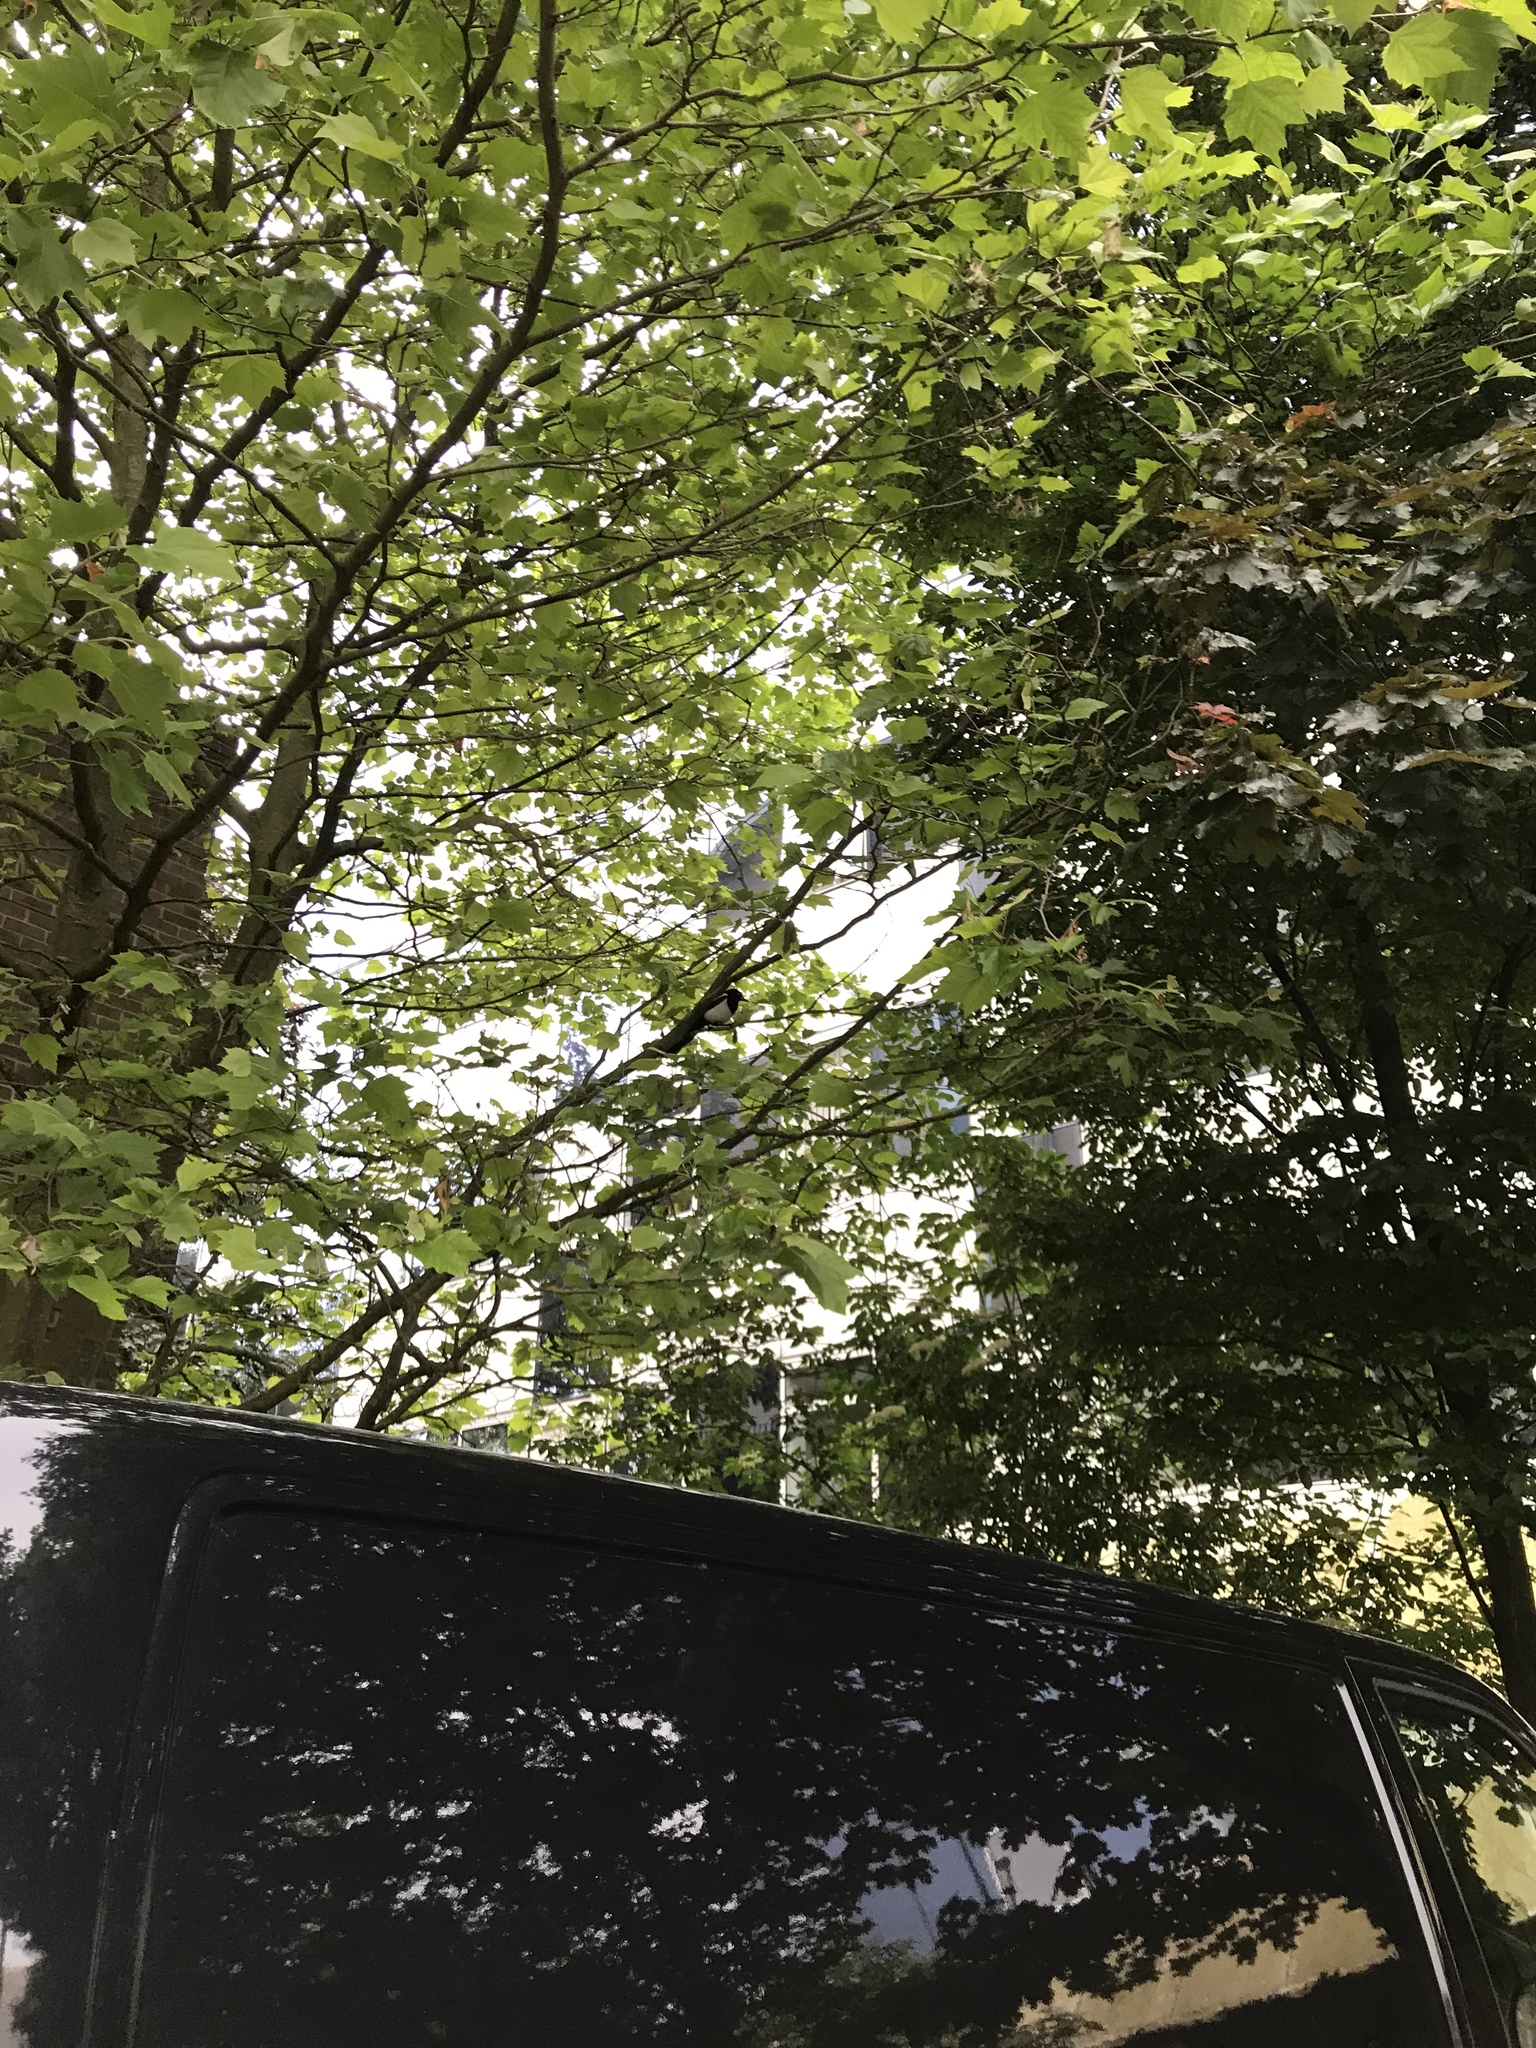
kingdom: Animalia
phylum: Chordata
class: Aves
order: Passeriformes
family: Corvidae
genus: Pica
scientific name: Pica pica
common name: Eurasian magpie
